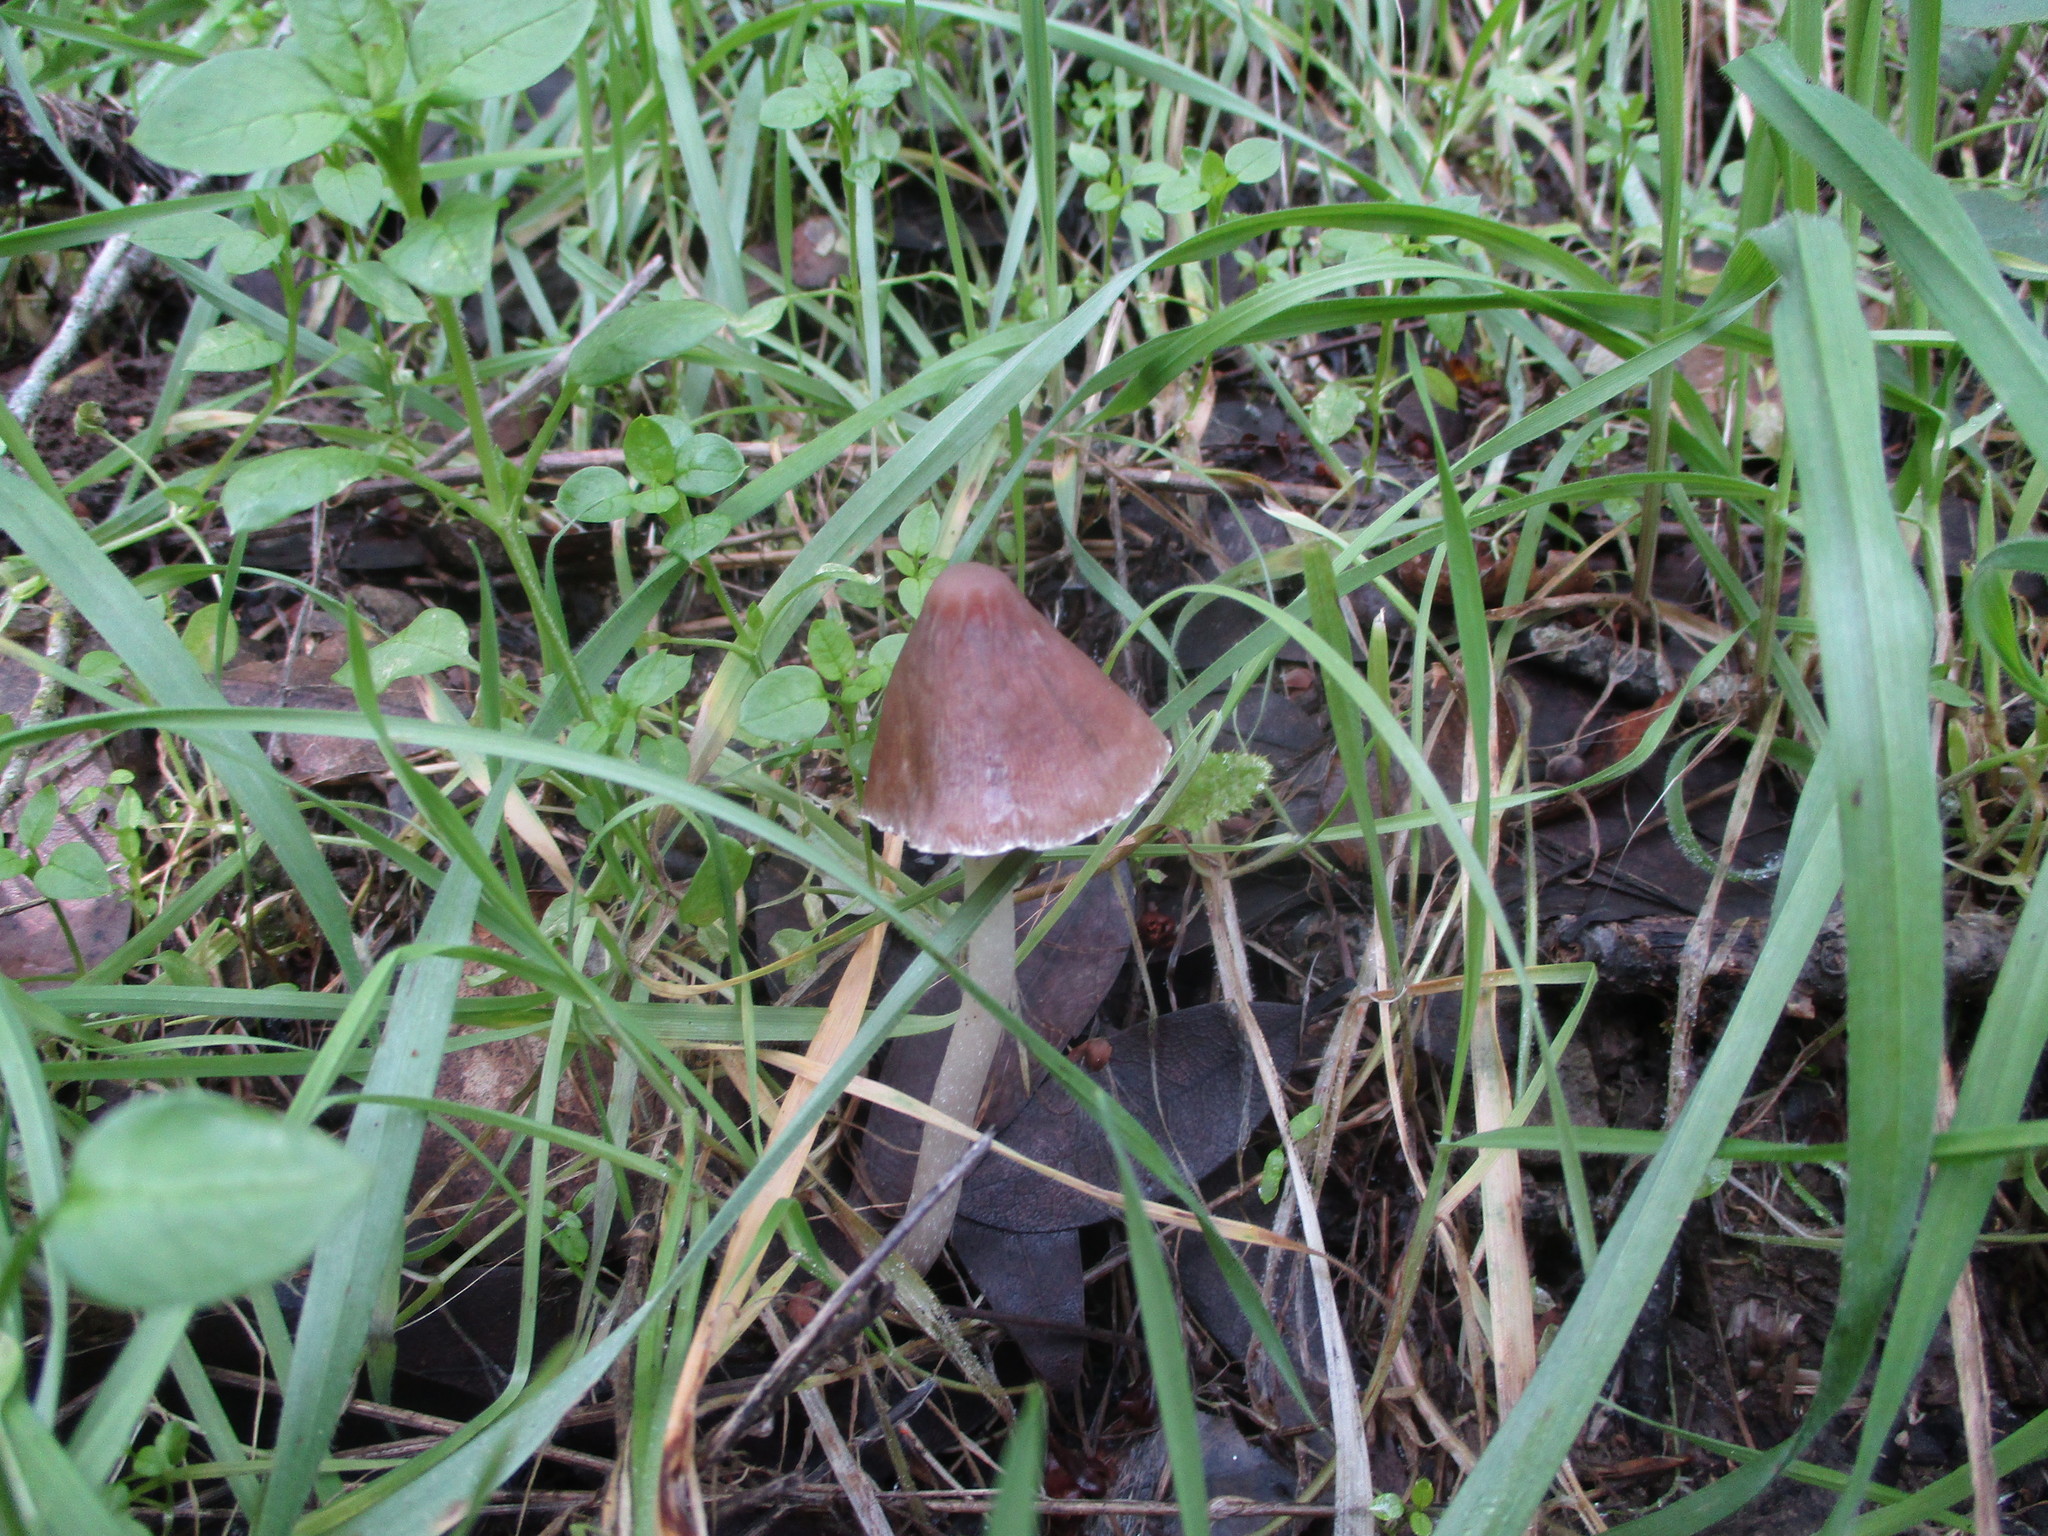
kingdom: Fungi
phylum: Basidiomycota
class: Agaricomycetes
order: Agaricales
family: Psathyrellaceae
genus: Psathyrella
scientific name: Psathyrella longipes
